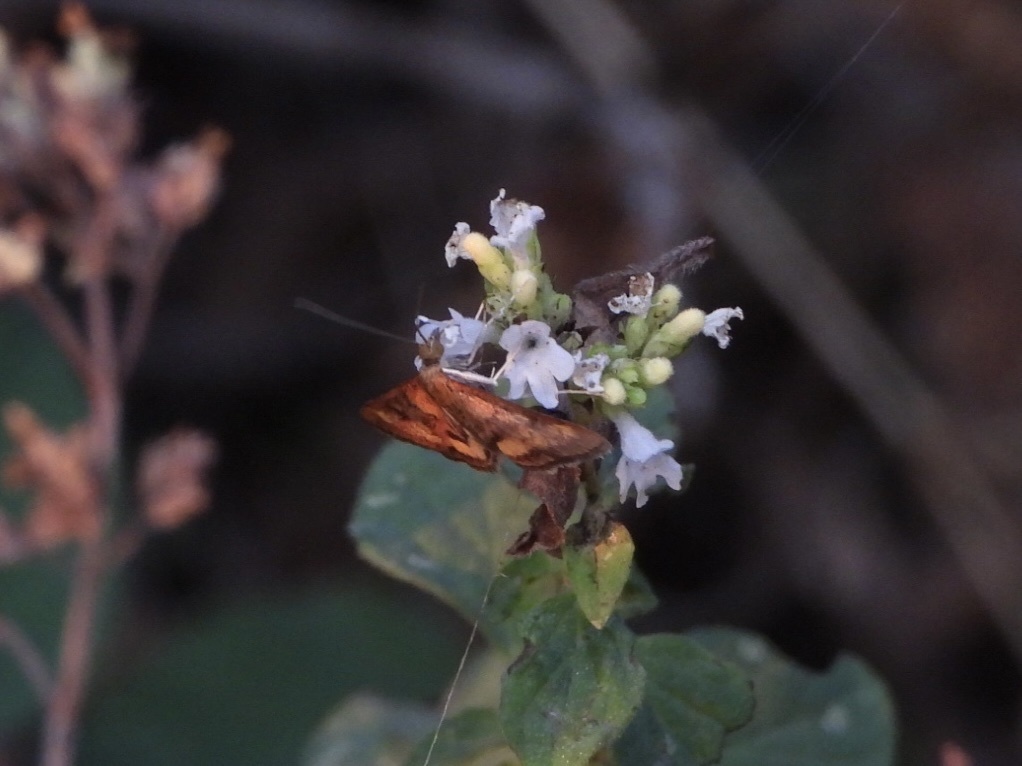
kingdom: Animalia
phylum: Arthropoda
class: Insecta
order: Lepidoptera
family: Crambidae
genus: Pyrausta
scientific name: Pyrausta californicalis
